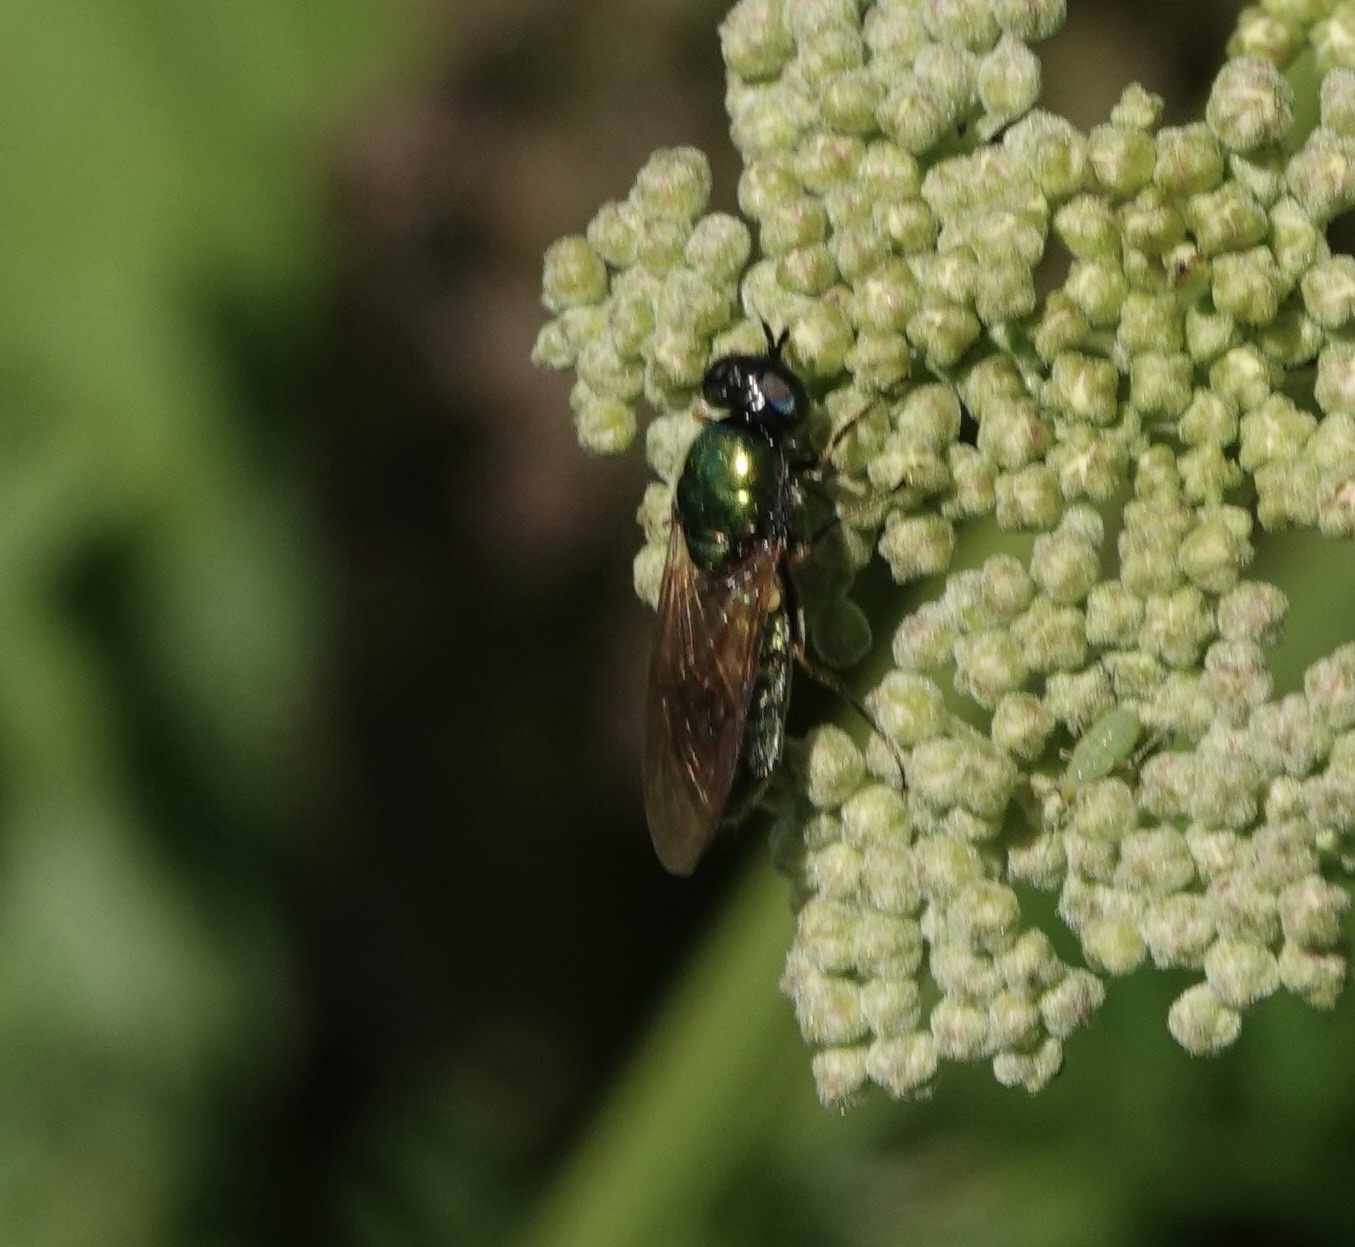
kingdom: Animalia
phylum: Arthropoda
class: Insecta
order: Diptera
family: Stratiomyidae
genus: Chloromyia
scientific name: Chloromyia formosa
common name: Soldier fly
